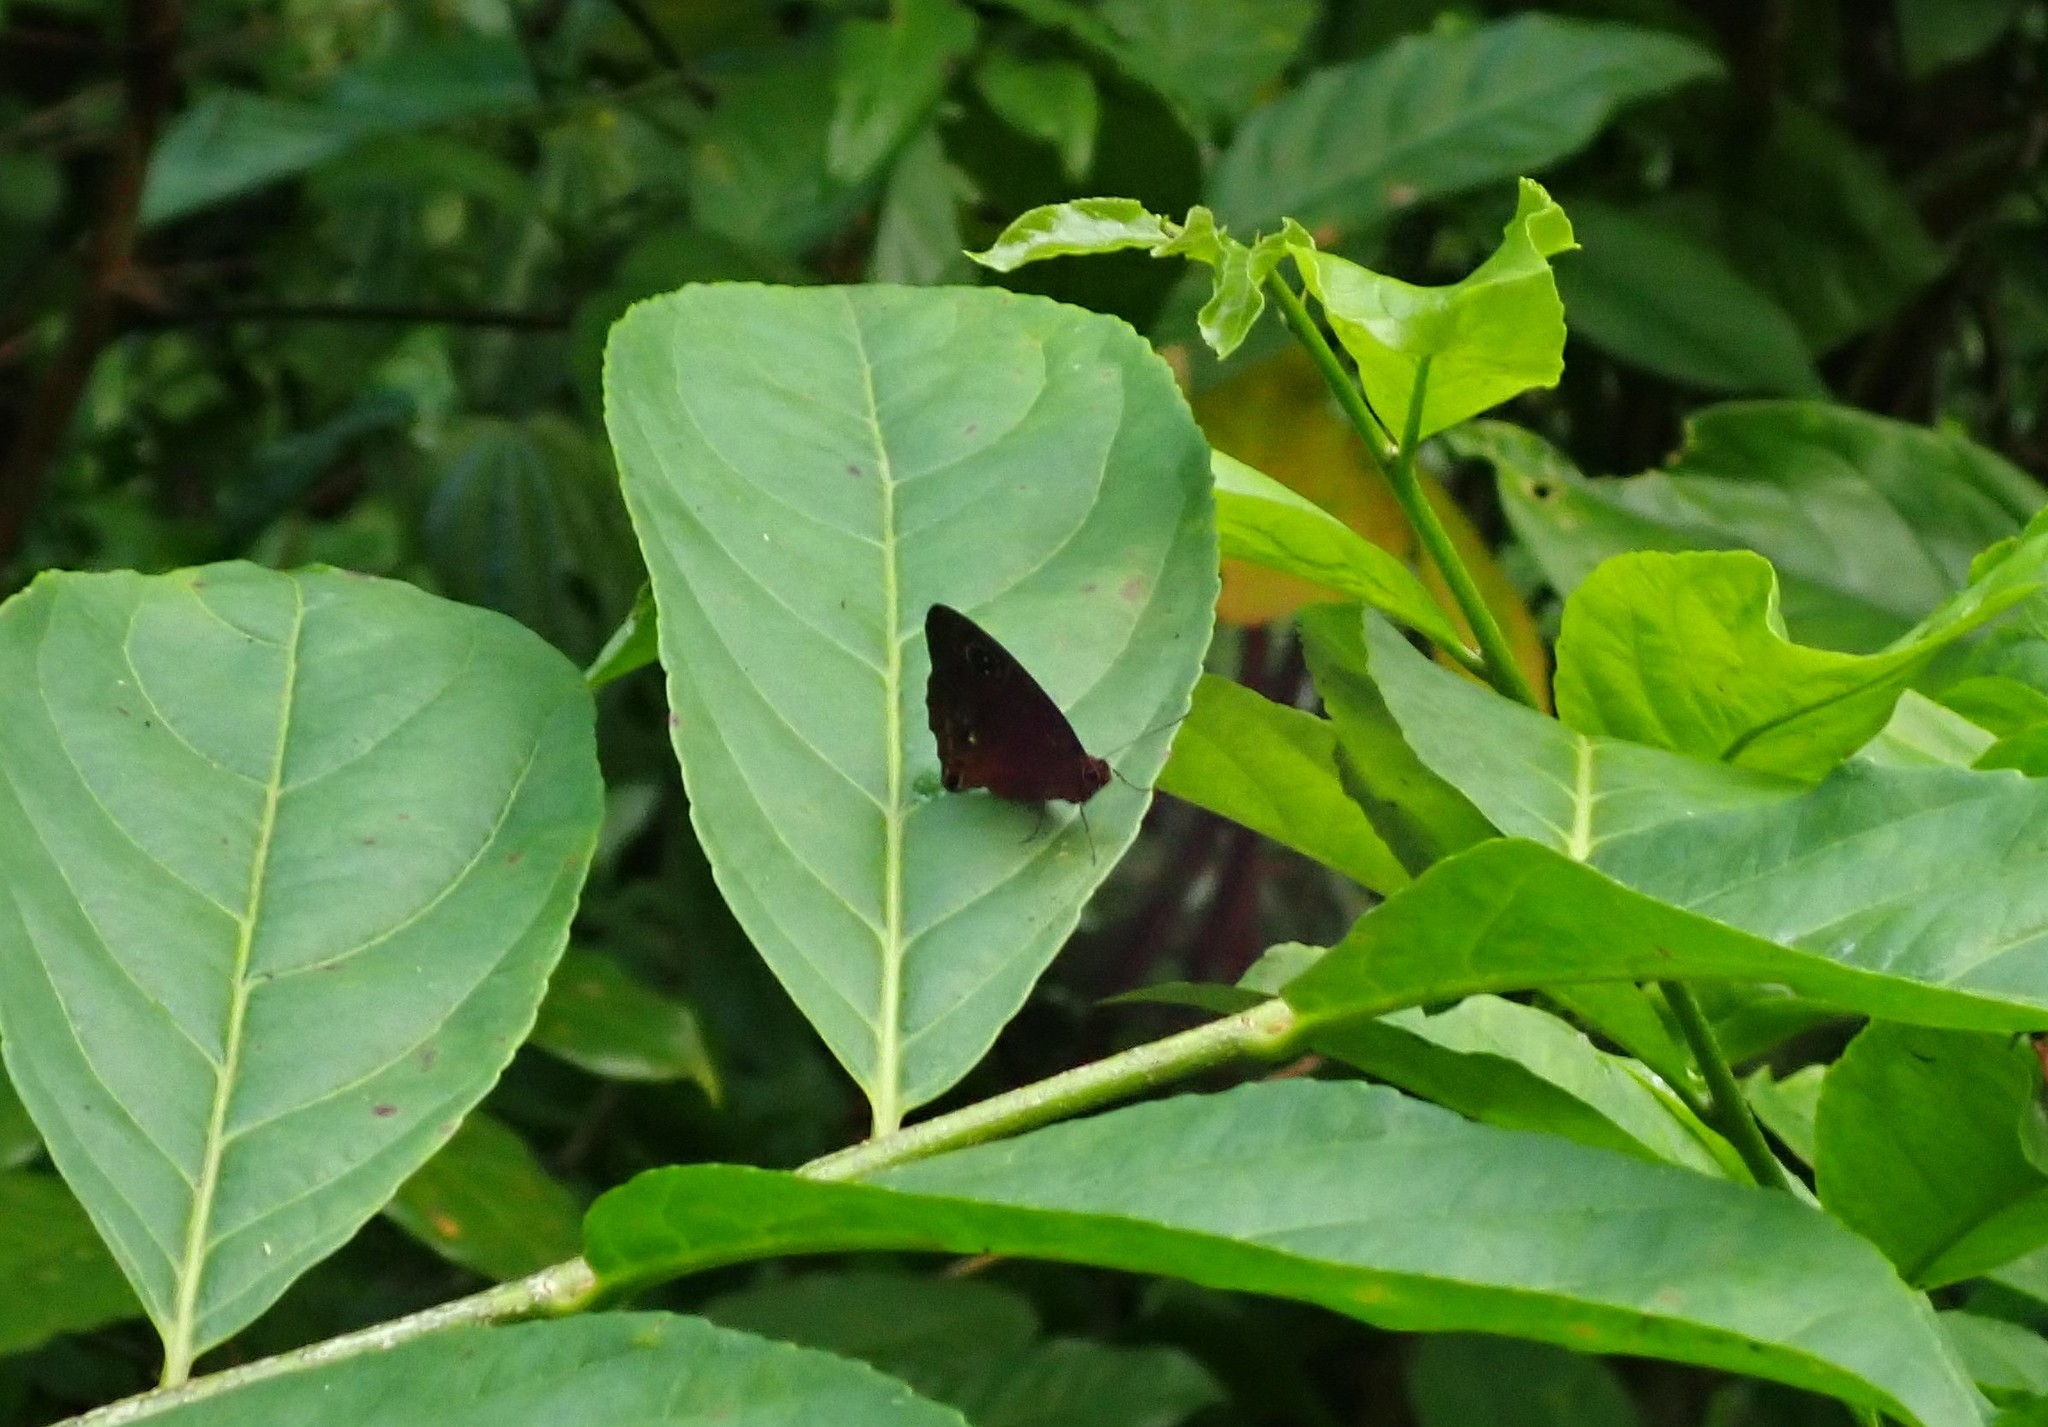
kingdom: Animalia
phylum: Arthropoda
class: Insecta
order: Lepidoptera
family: Nymphalidae
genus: Calisto
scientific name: Calisto nubila
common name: Puerto rican calisto
